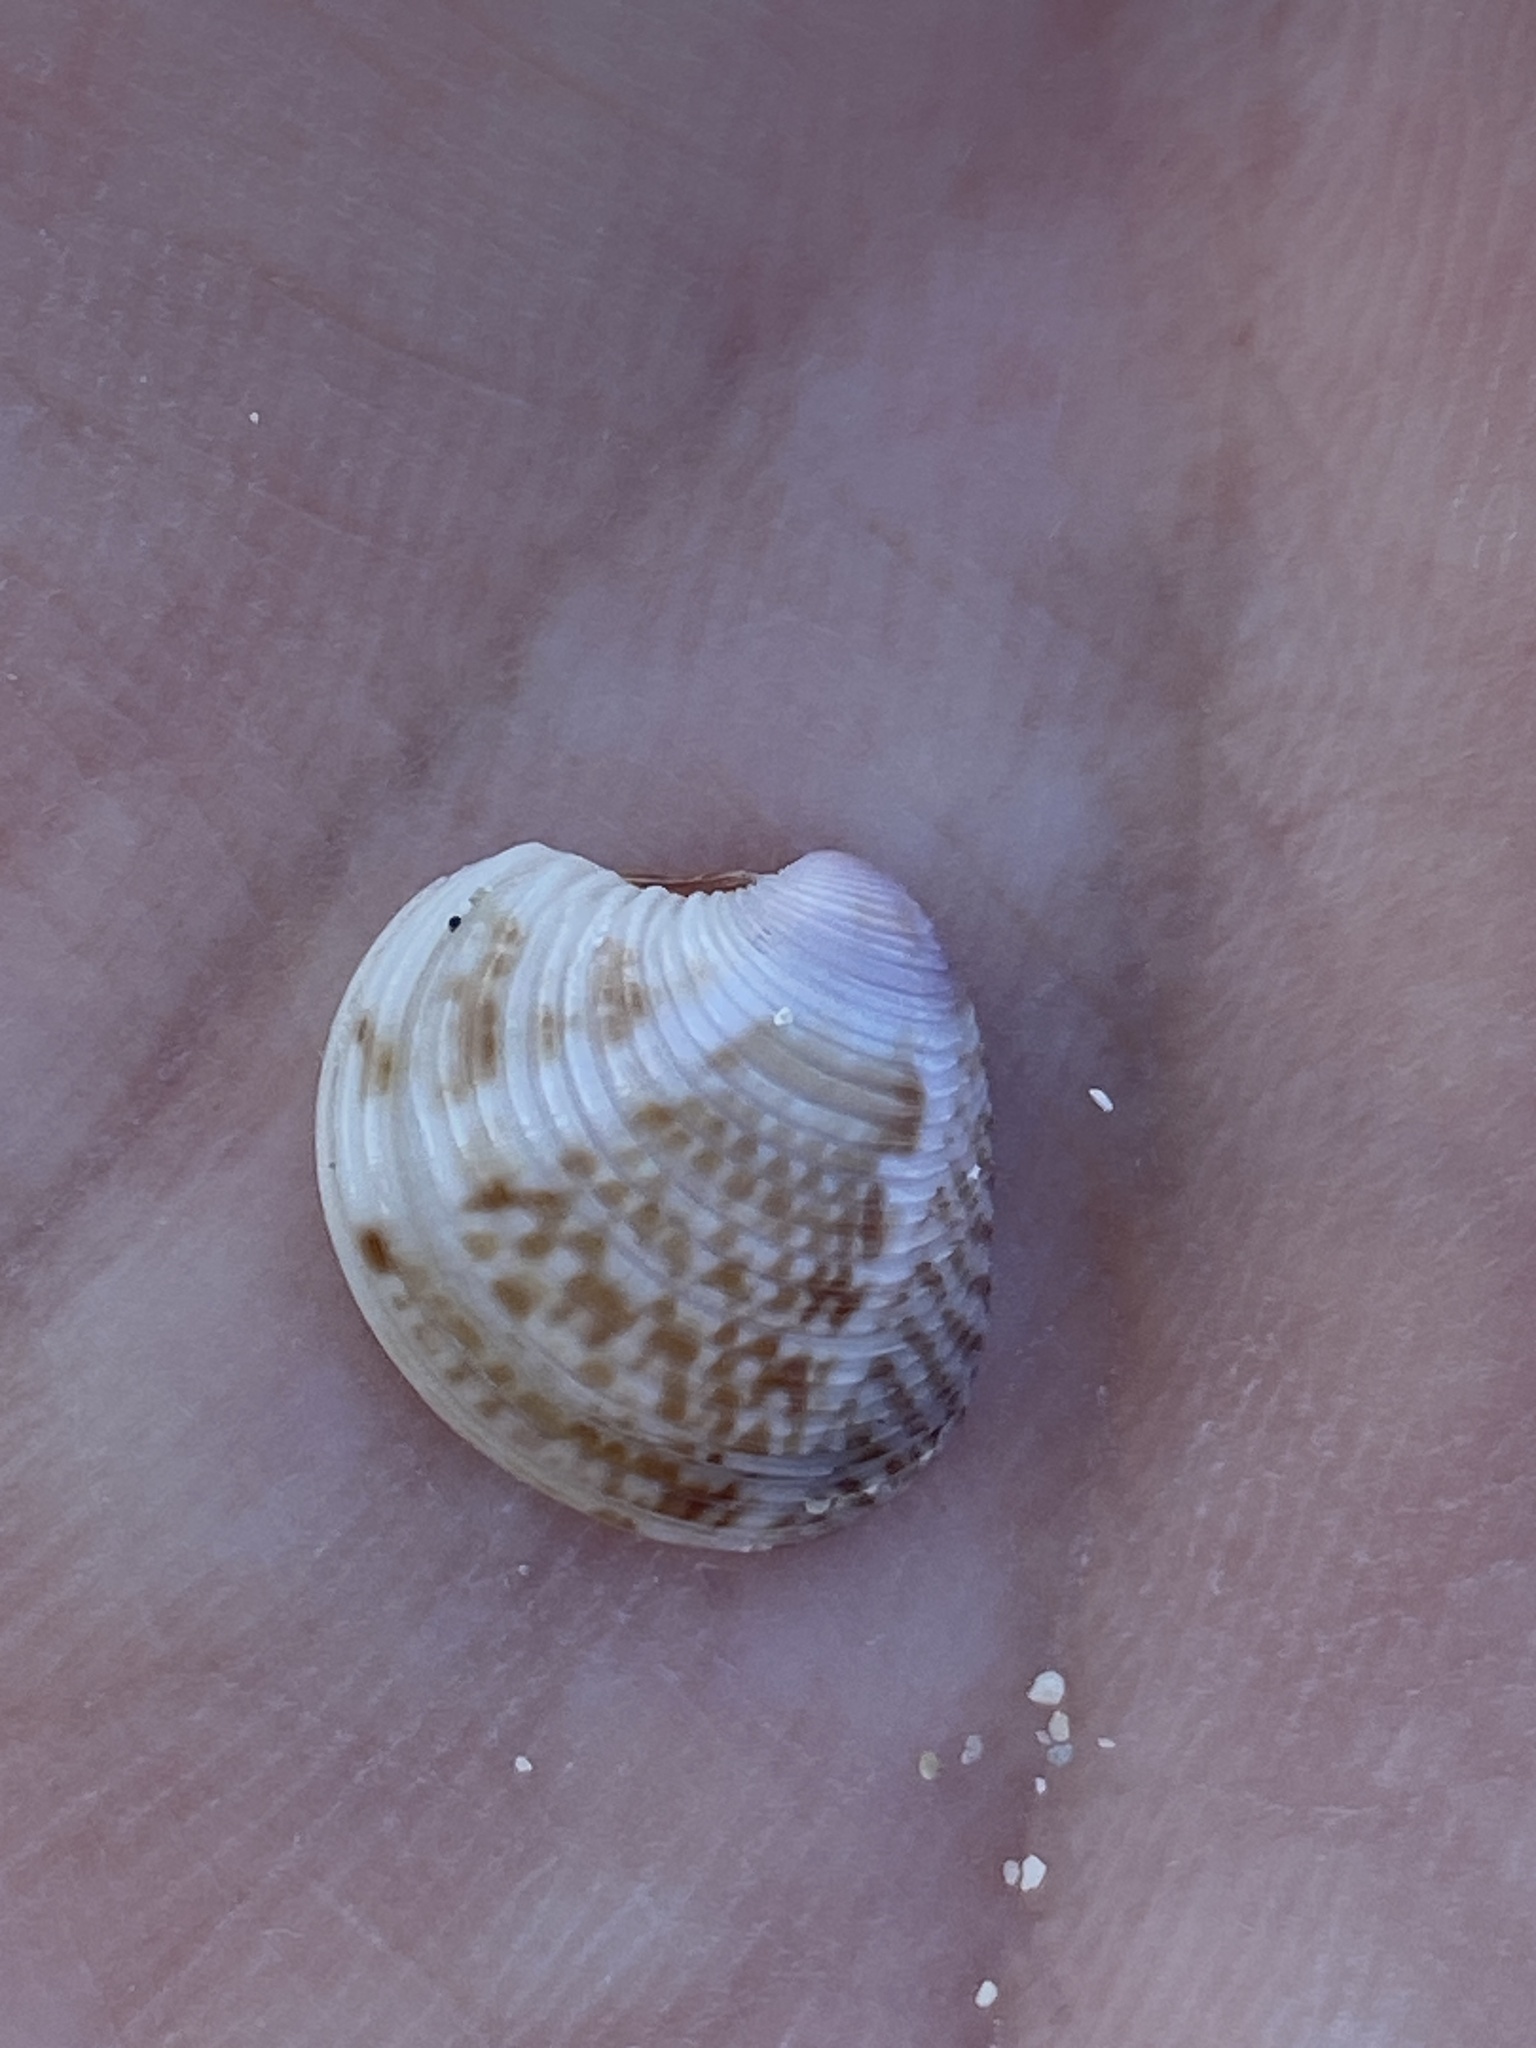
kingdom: Animalia
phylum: Mollusca
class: Bivalvia
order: Venerida
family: Veneridae
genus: Chamelea
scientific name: Chamelea gallina
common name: Chicken venus
